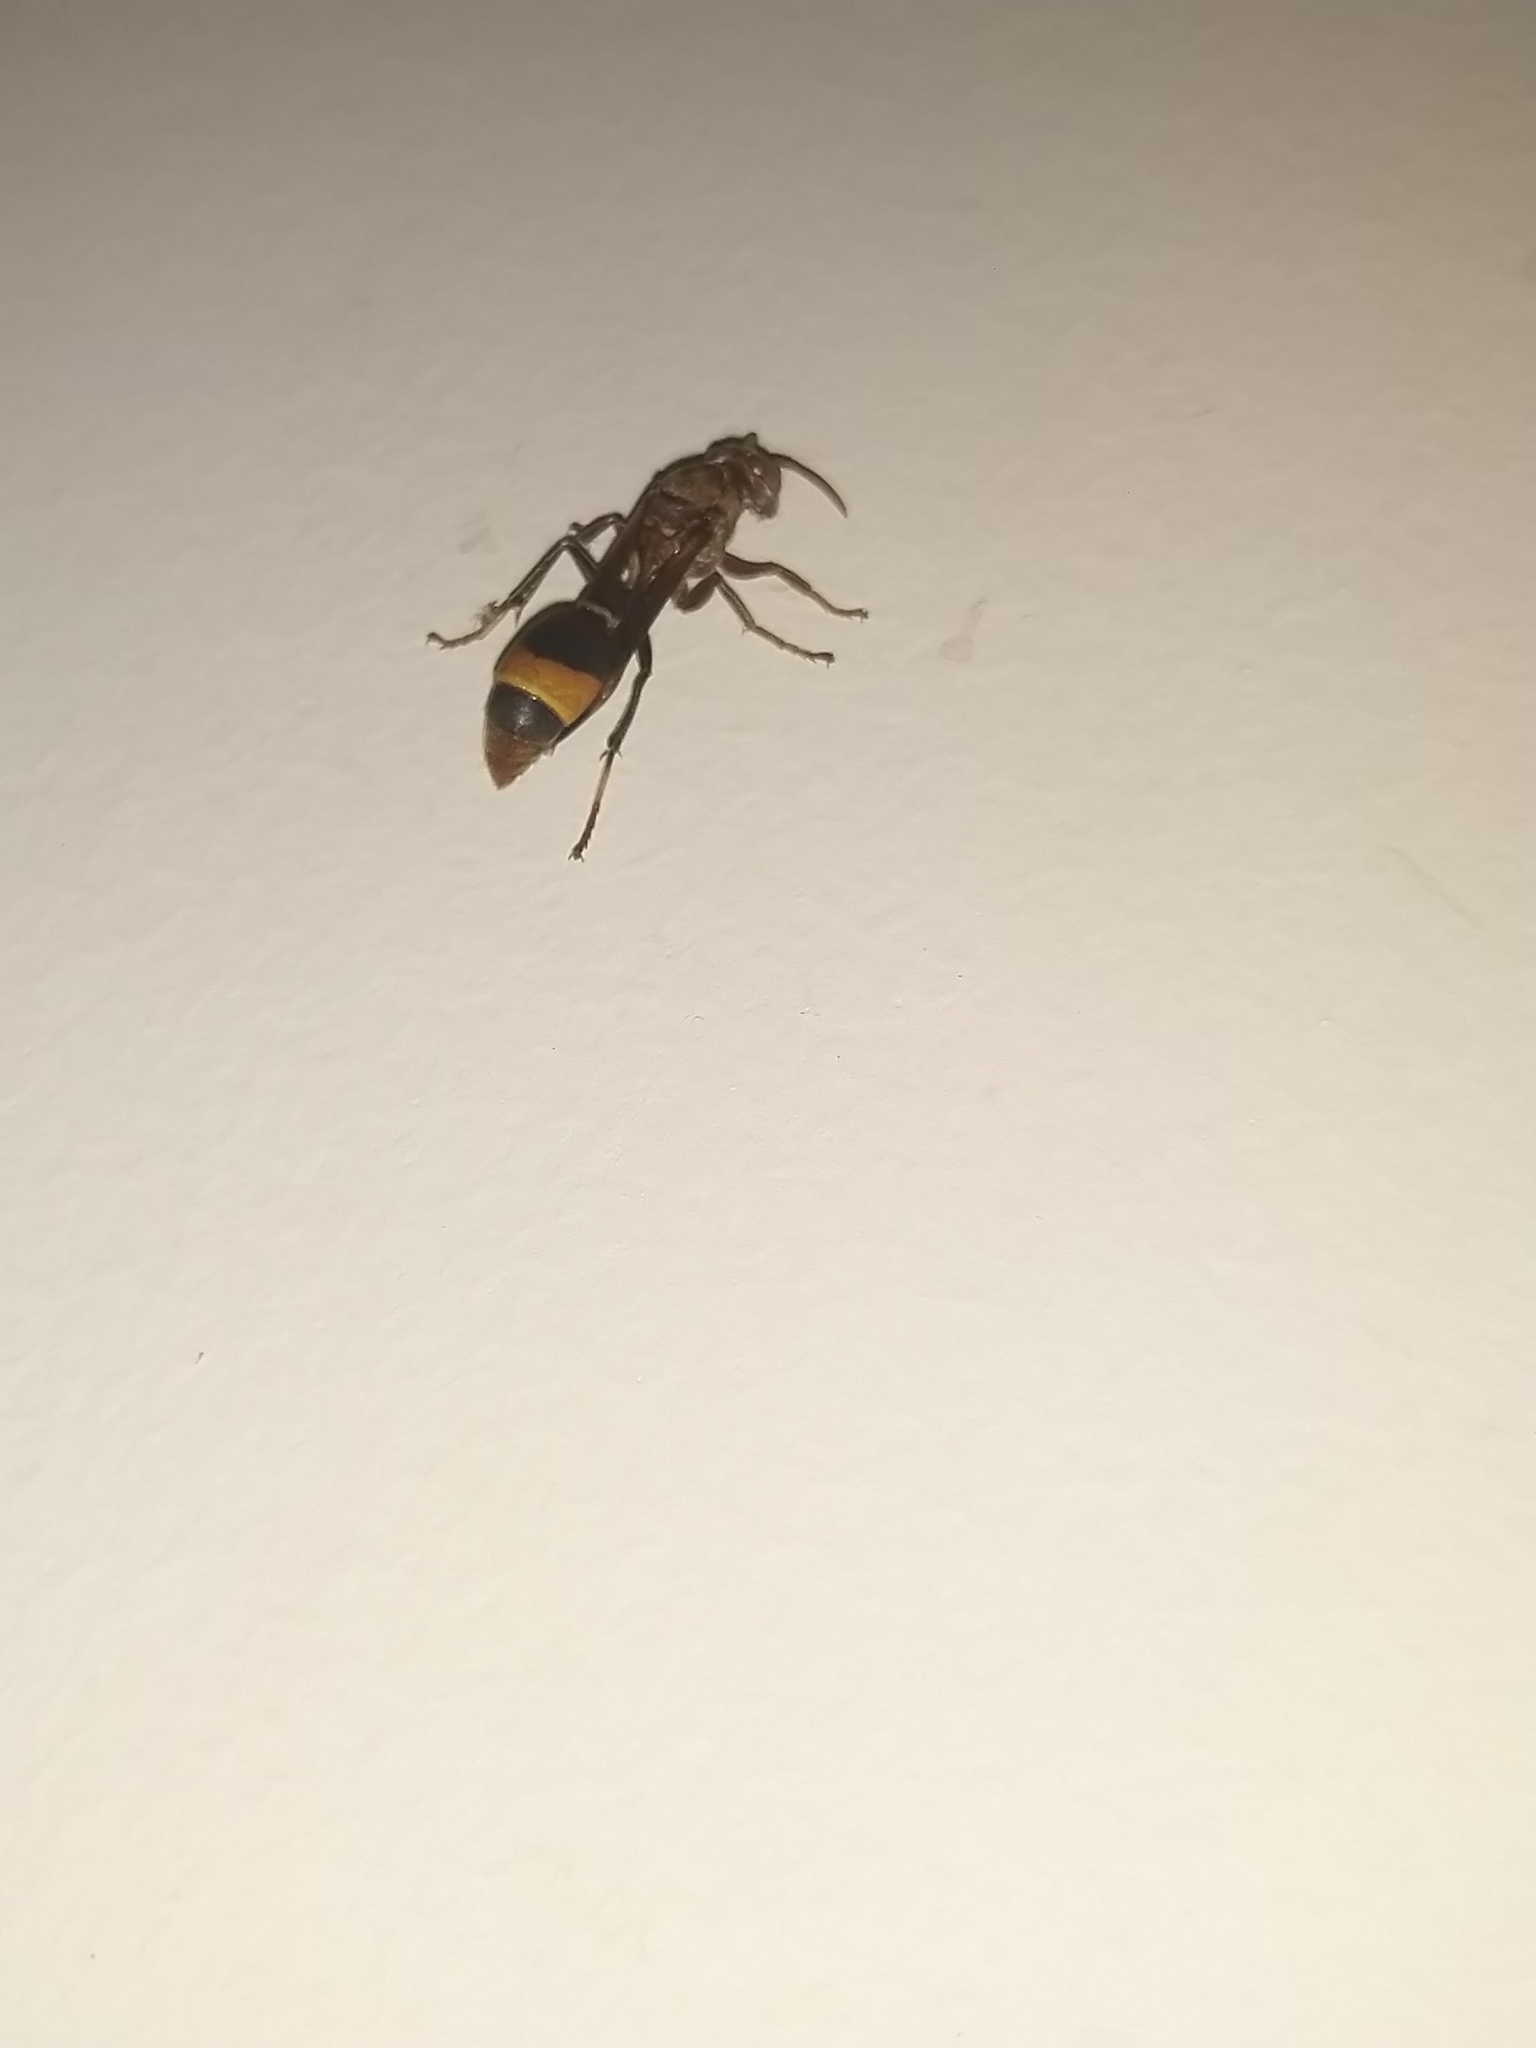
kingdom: Animalia
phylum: Arthropoda
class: Insecta
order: Hymenoptera
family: Vespidae
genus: Ropalidia
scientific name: Ropalidia
